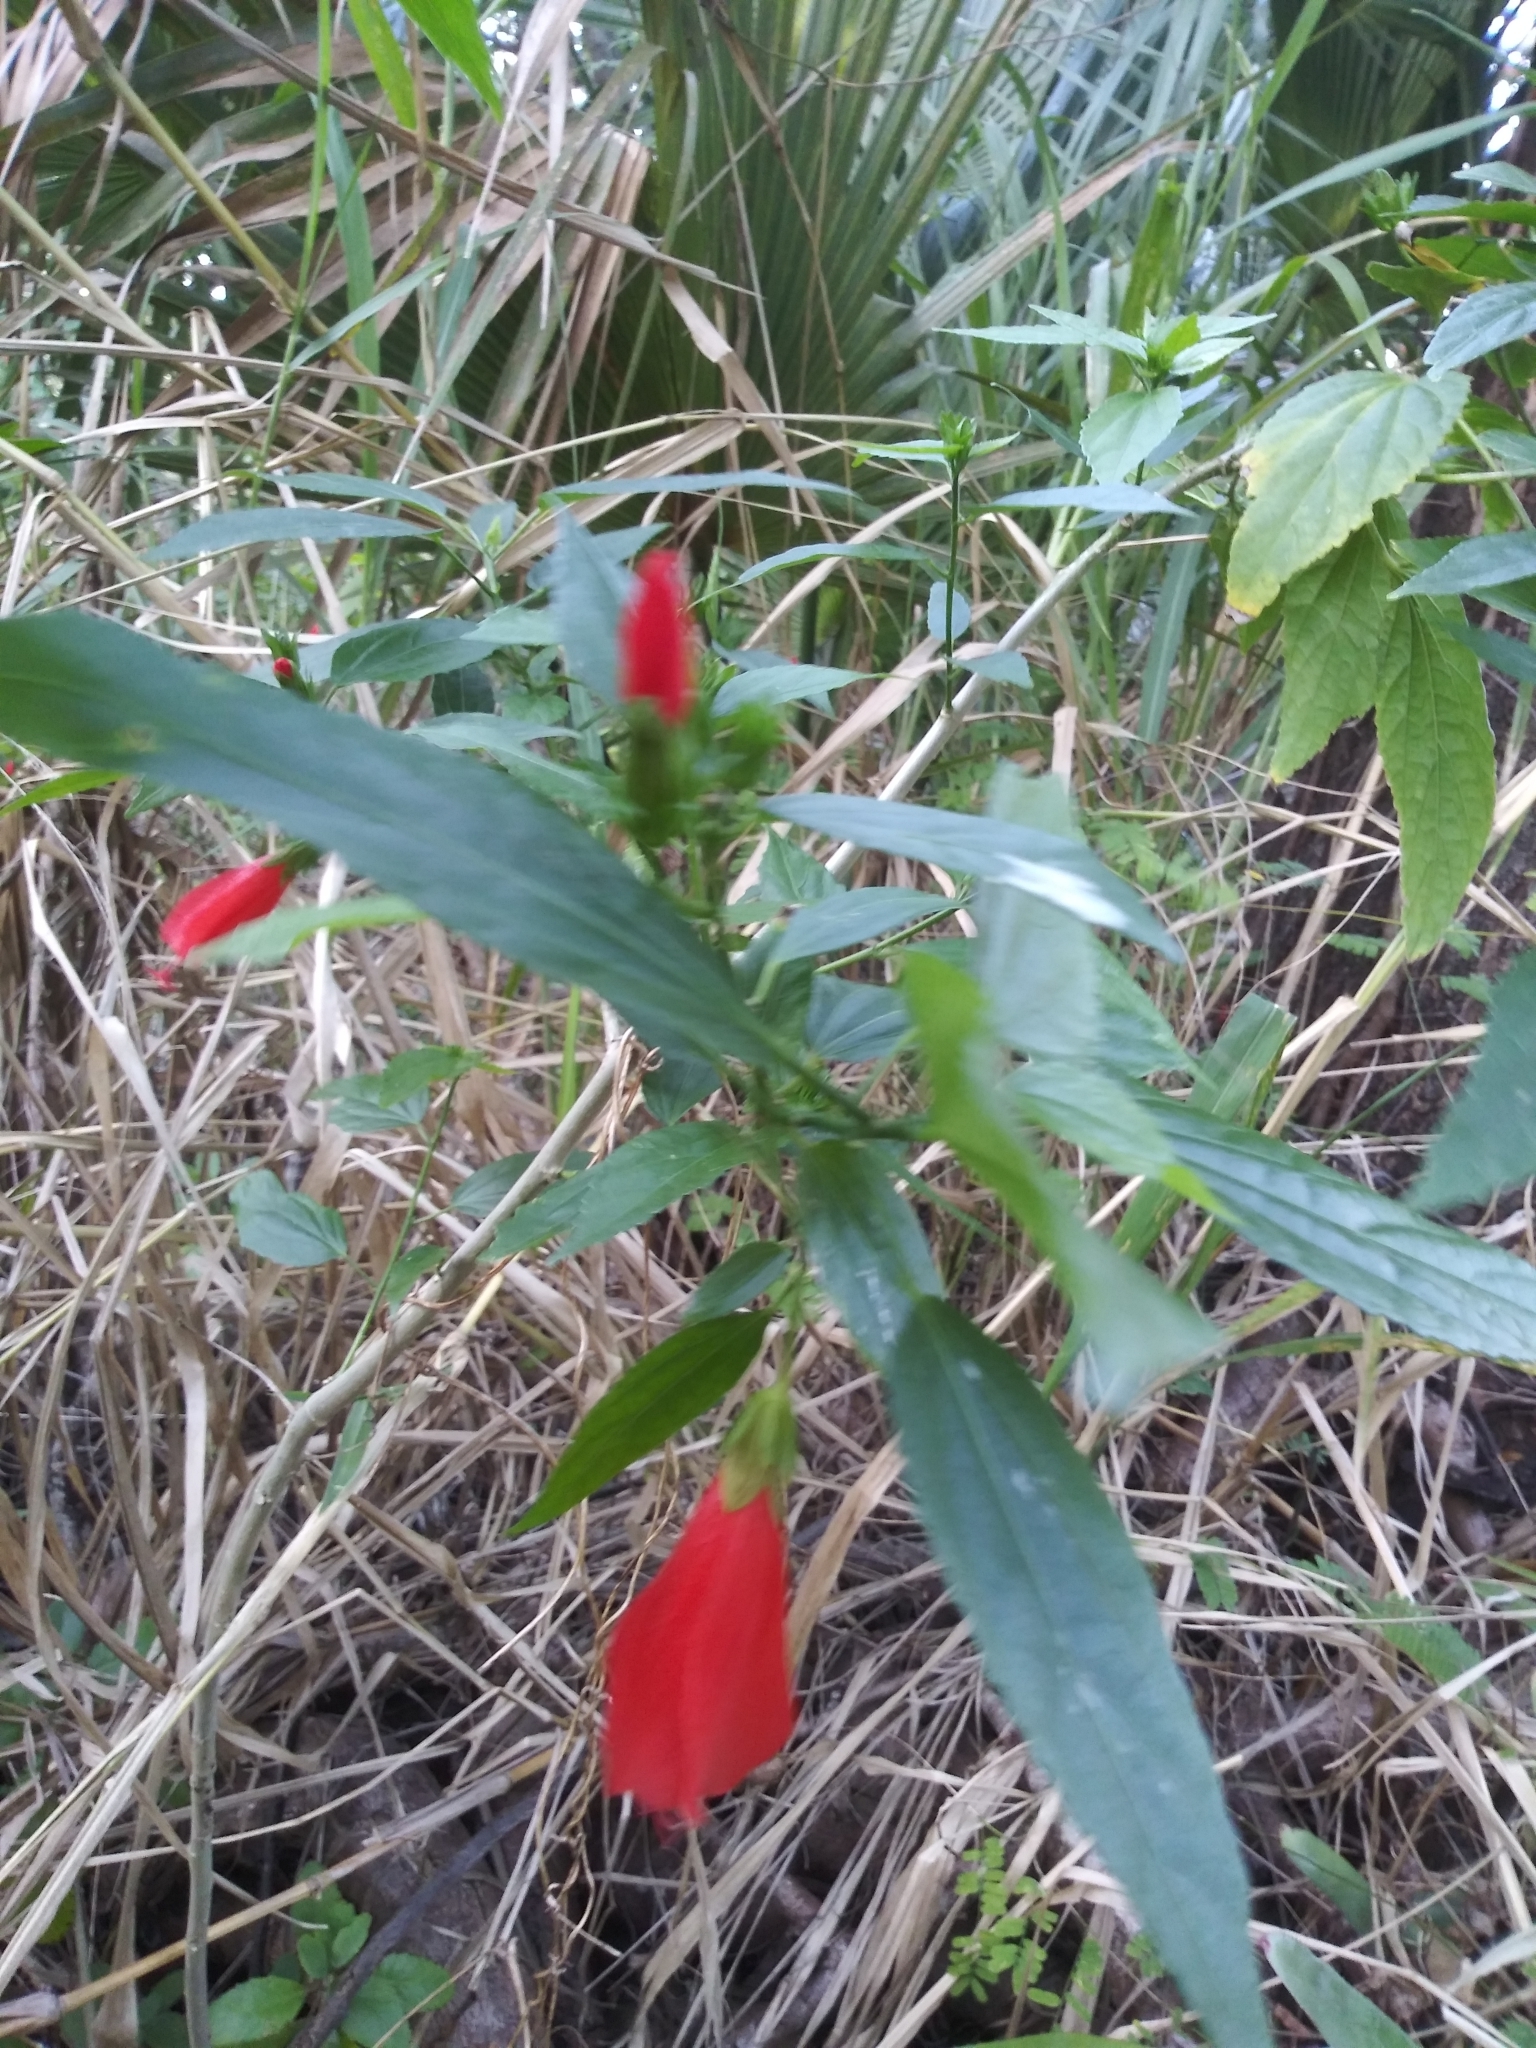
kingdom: Plantae
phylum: Tracheophyta
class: Magnoliopsida
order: Malvales
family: Malvaceae
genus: Malvaviscus
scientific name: Malvaviscus penduliflorus
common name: Mazapan
